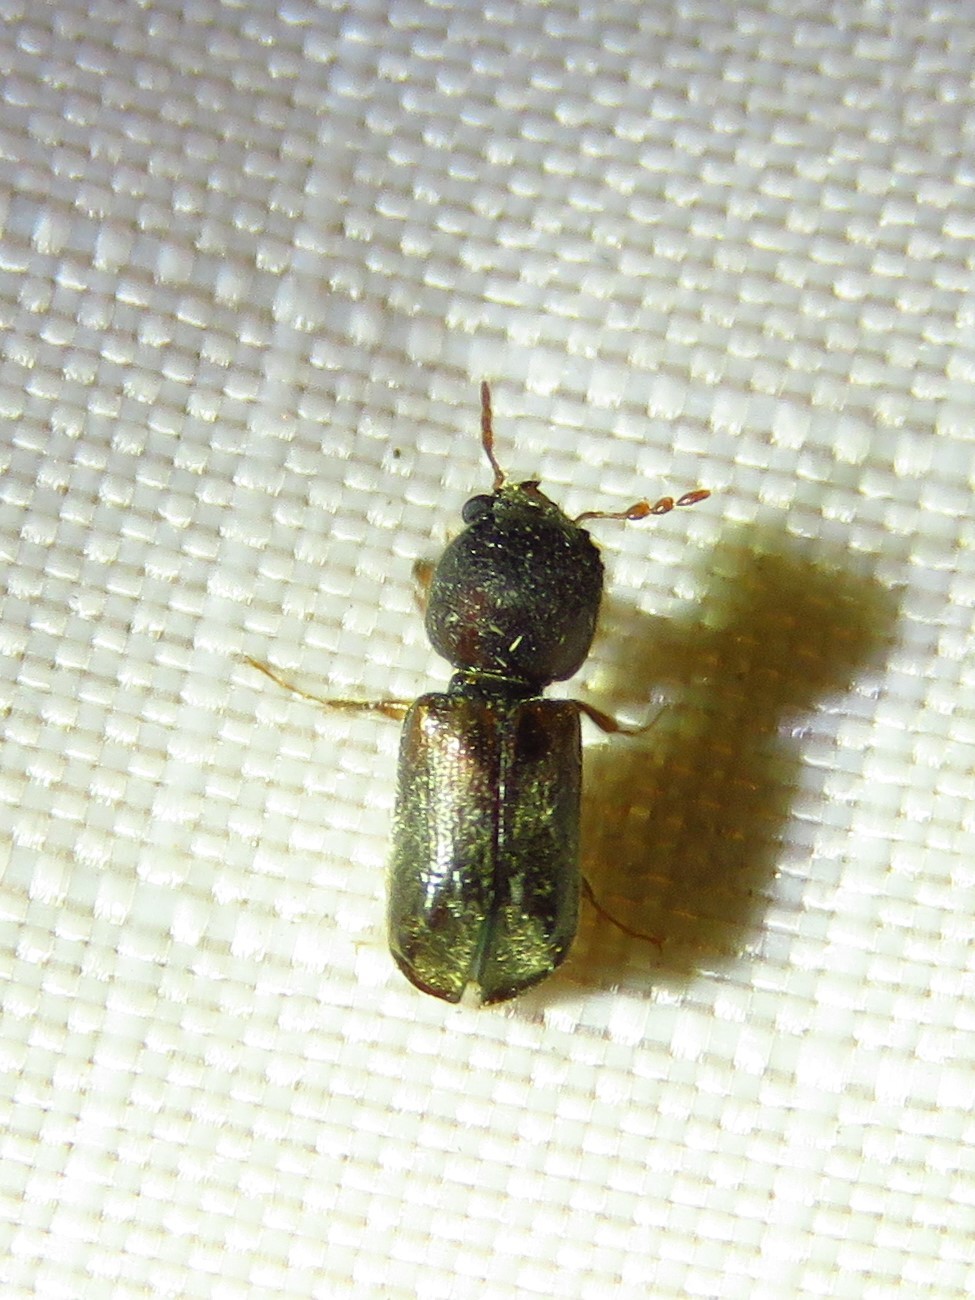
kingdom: Animalia
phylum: Arthropoda
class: Insecta
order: Coleoptera
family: Bostrichidae
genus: Xylobiops
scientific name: Xylobiops basilaris
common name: Red-shouldered bostrichid
